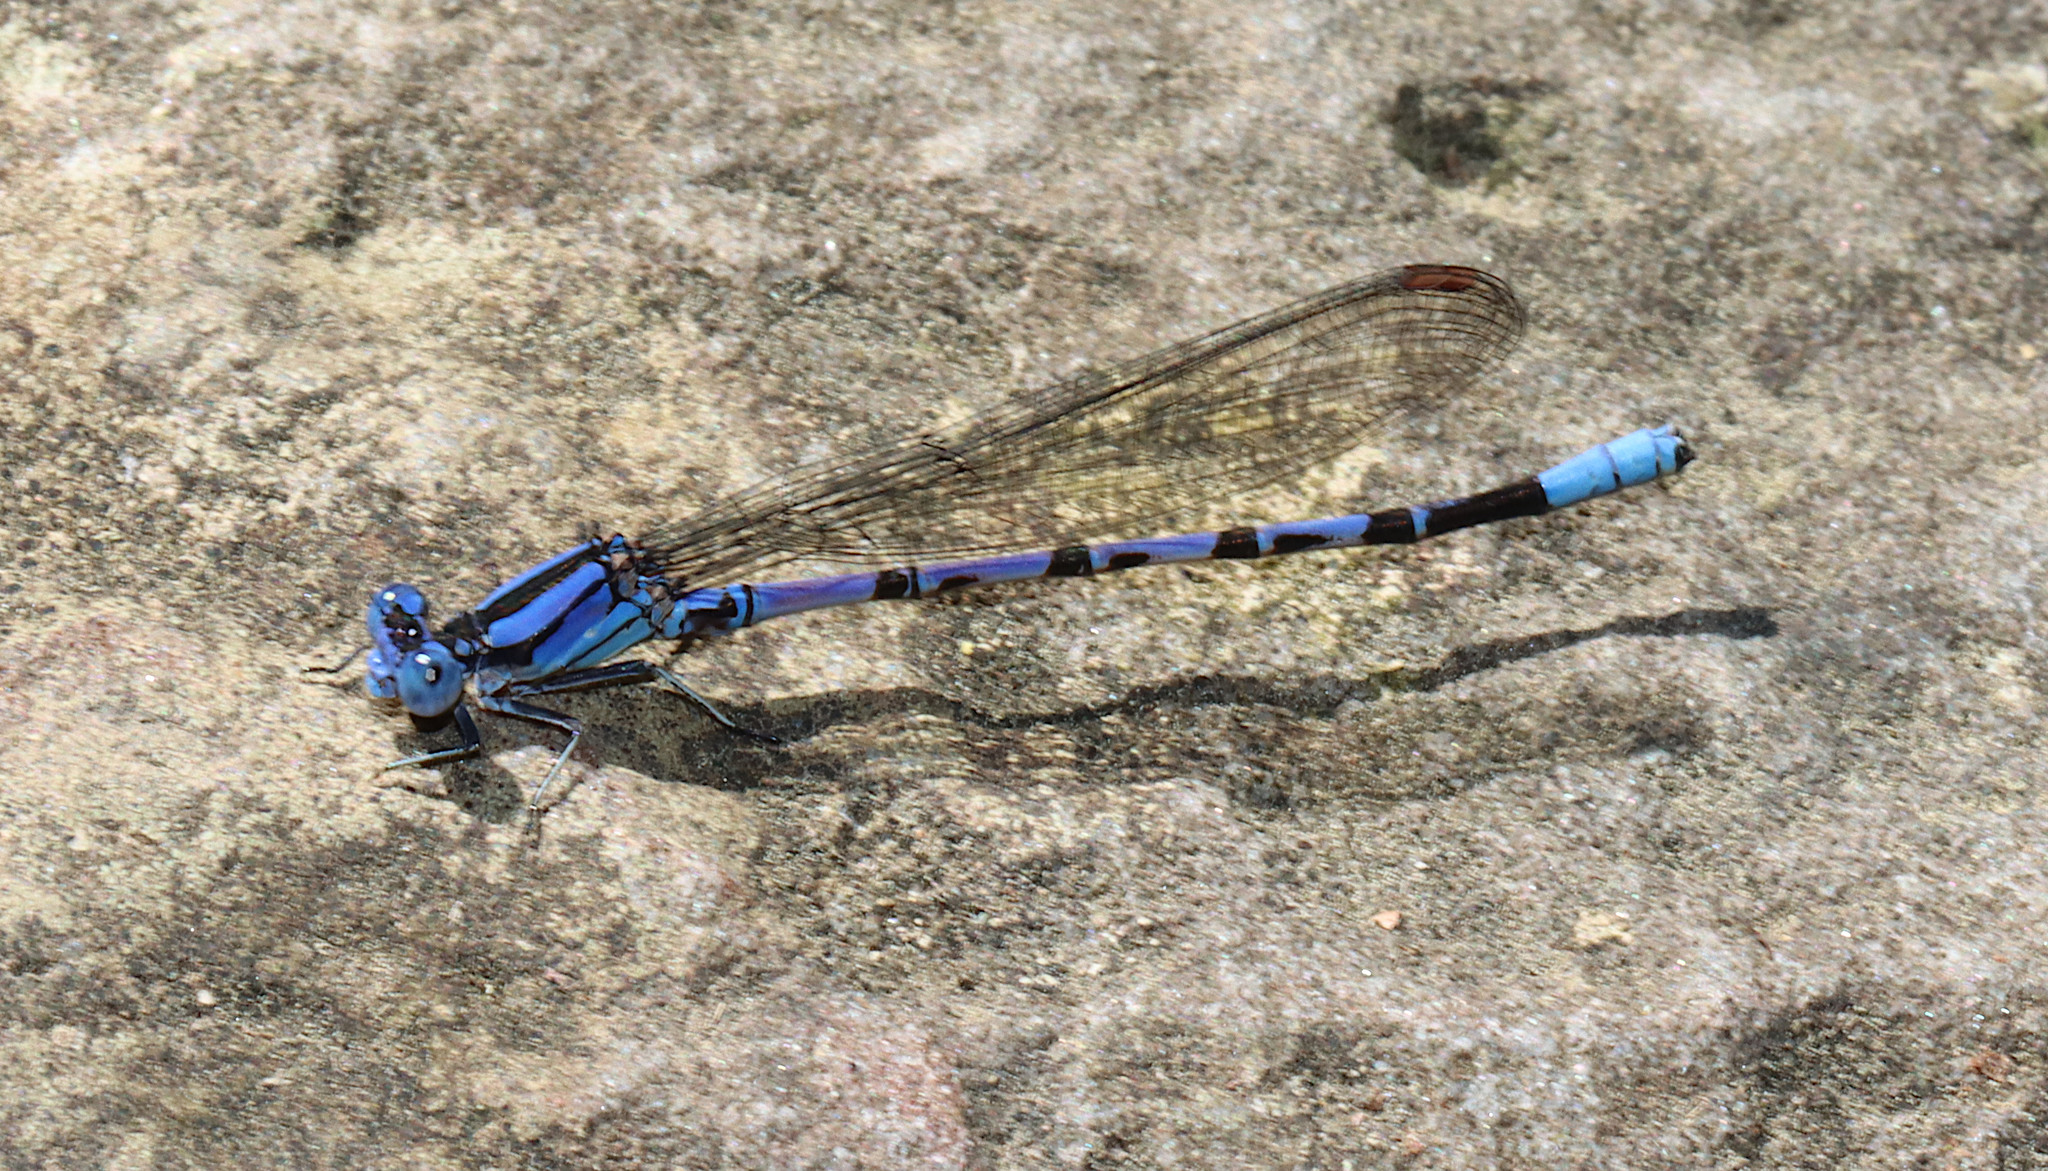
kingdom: Animalia
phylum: Arthropoda
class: Insecta
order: Odonata
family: Coenagrionidae
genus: Argia
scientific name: Argia funebris
